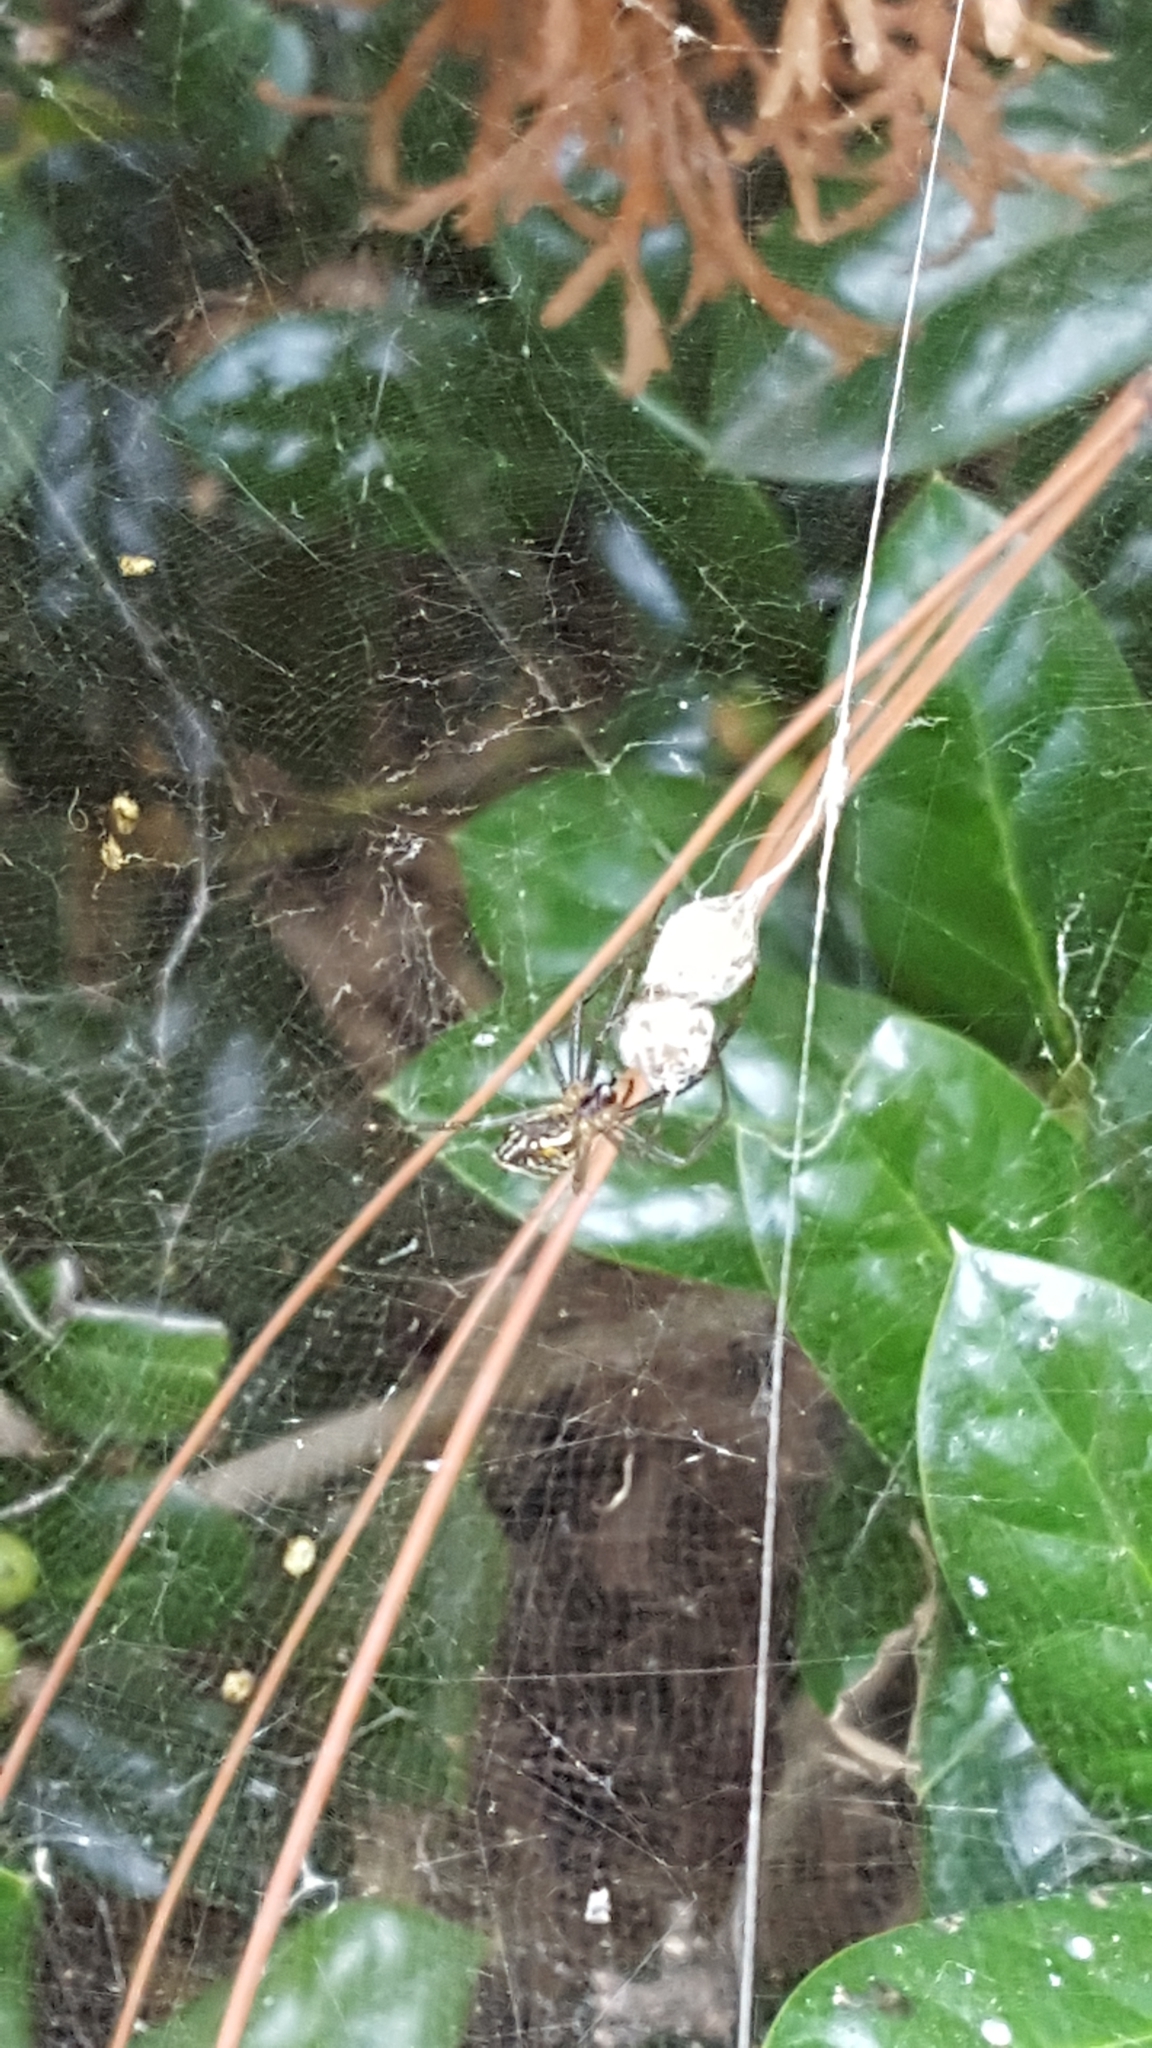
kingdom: Animalia
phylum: Arthropoda
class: Arachnida
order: Araneae
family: Araneidae
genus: Mecynogea
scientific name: Mecynogea lemniscata
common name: Orb weavers
